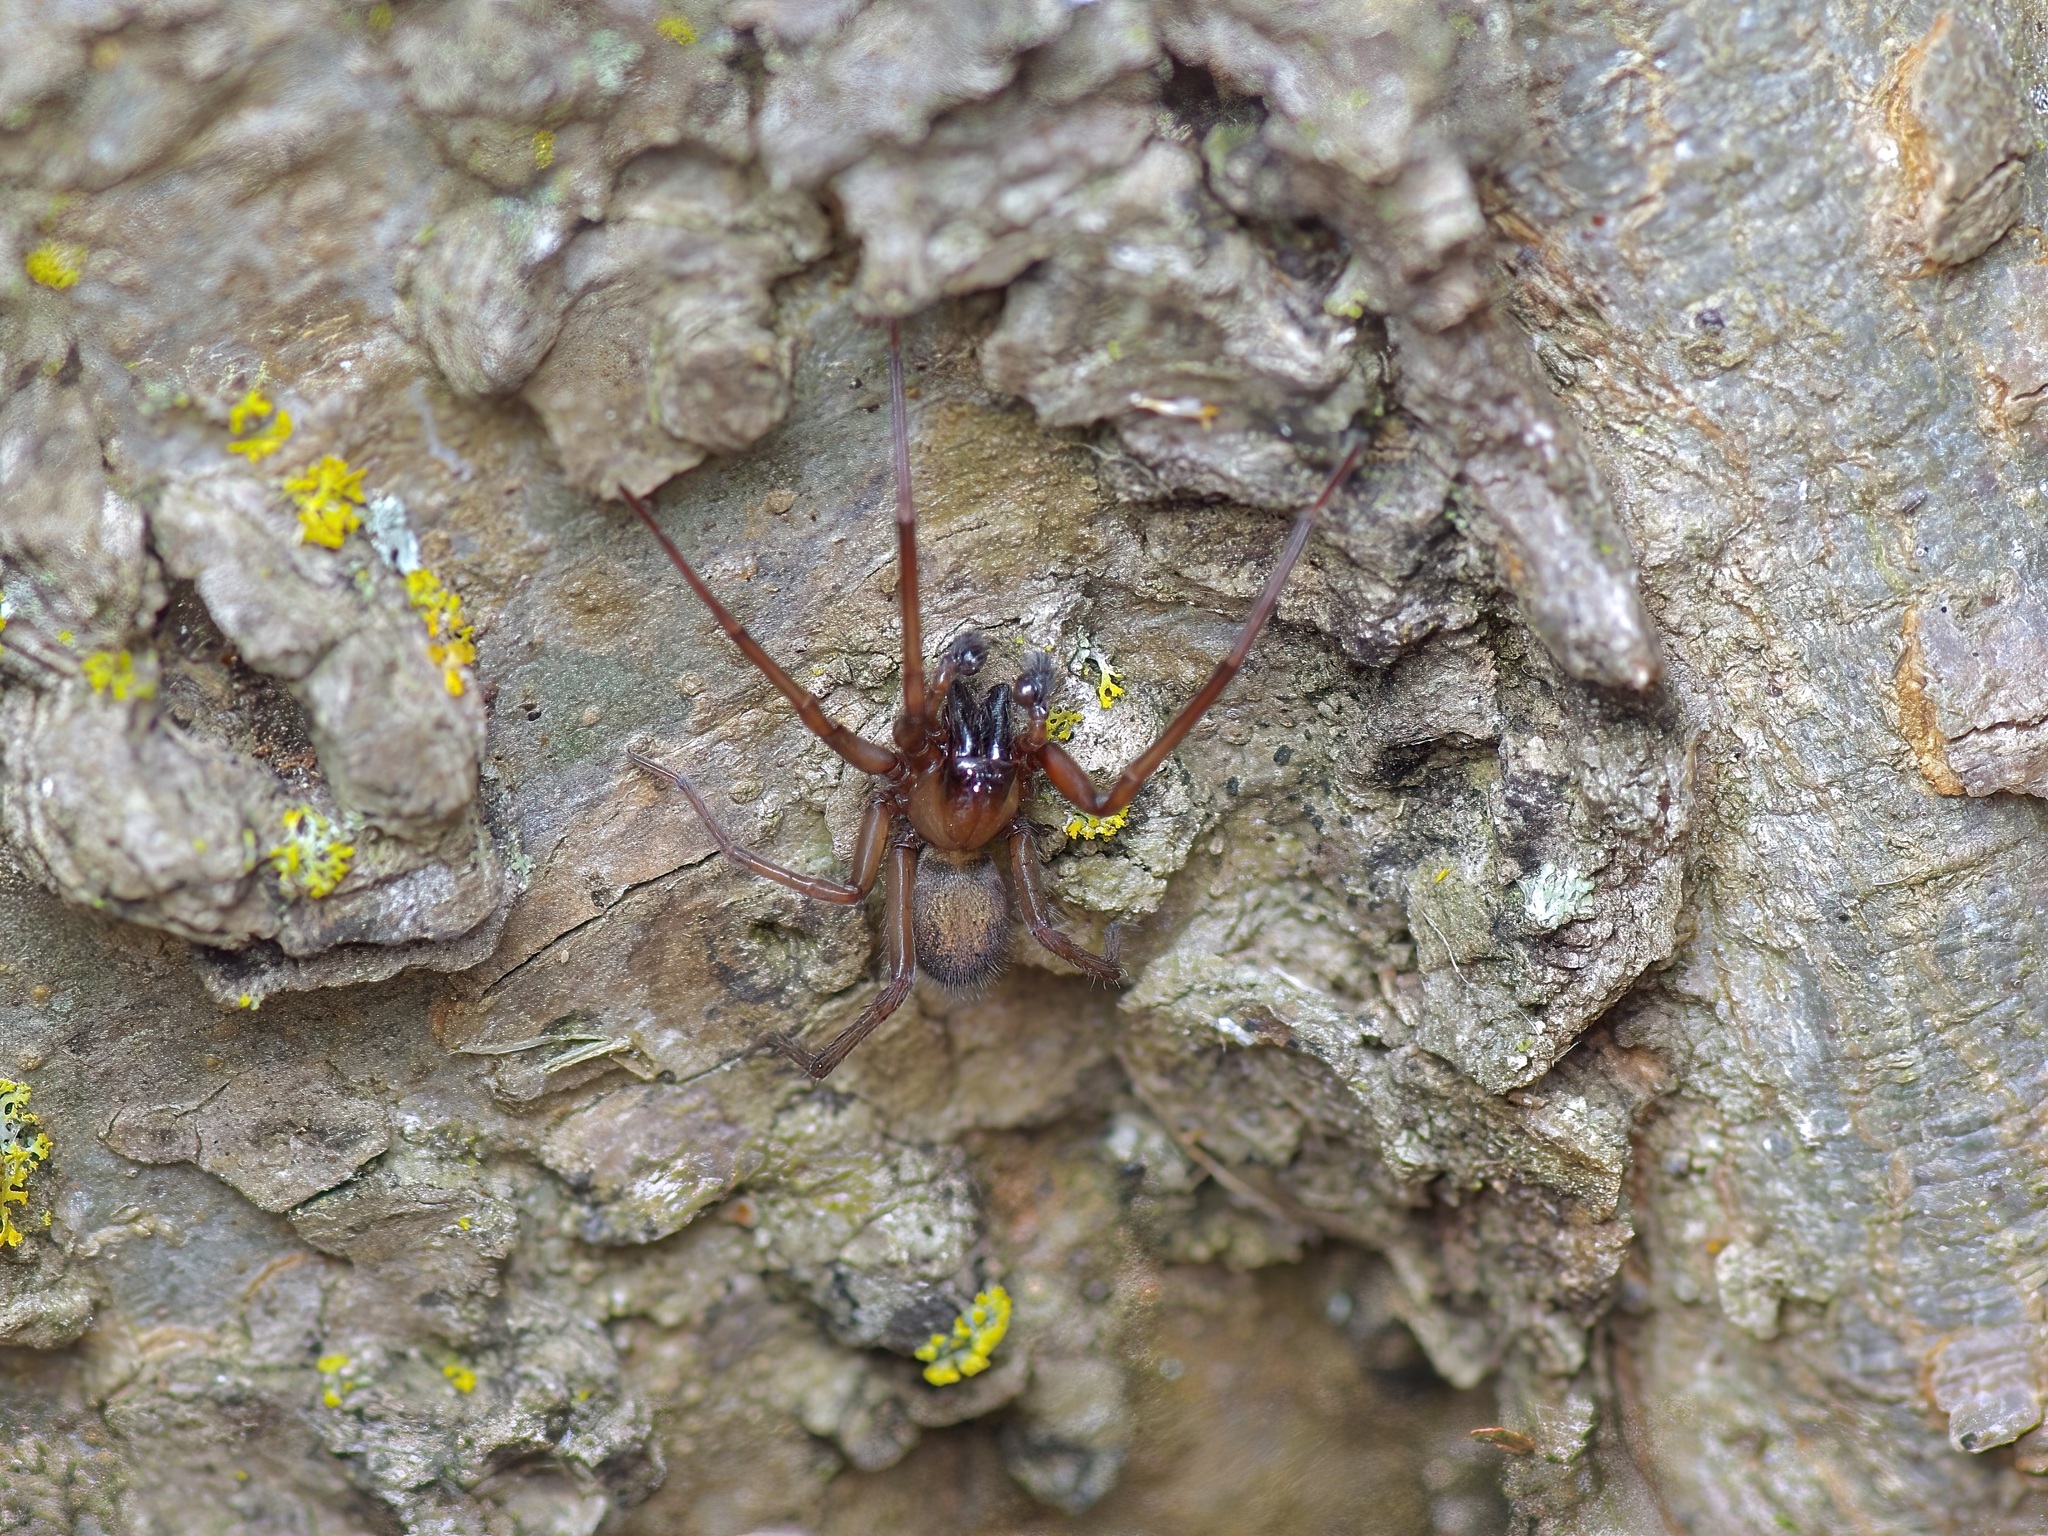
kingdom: Animalia
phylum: Arthropoda
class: Arachnida
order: Araneae
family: Desidae
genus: Metaltella
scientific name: Metaltella simoni
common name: Cribellate spider
